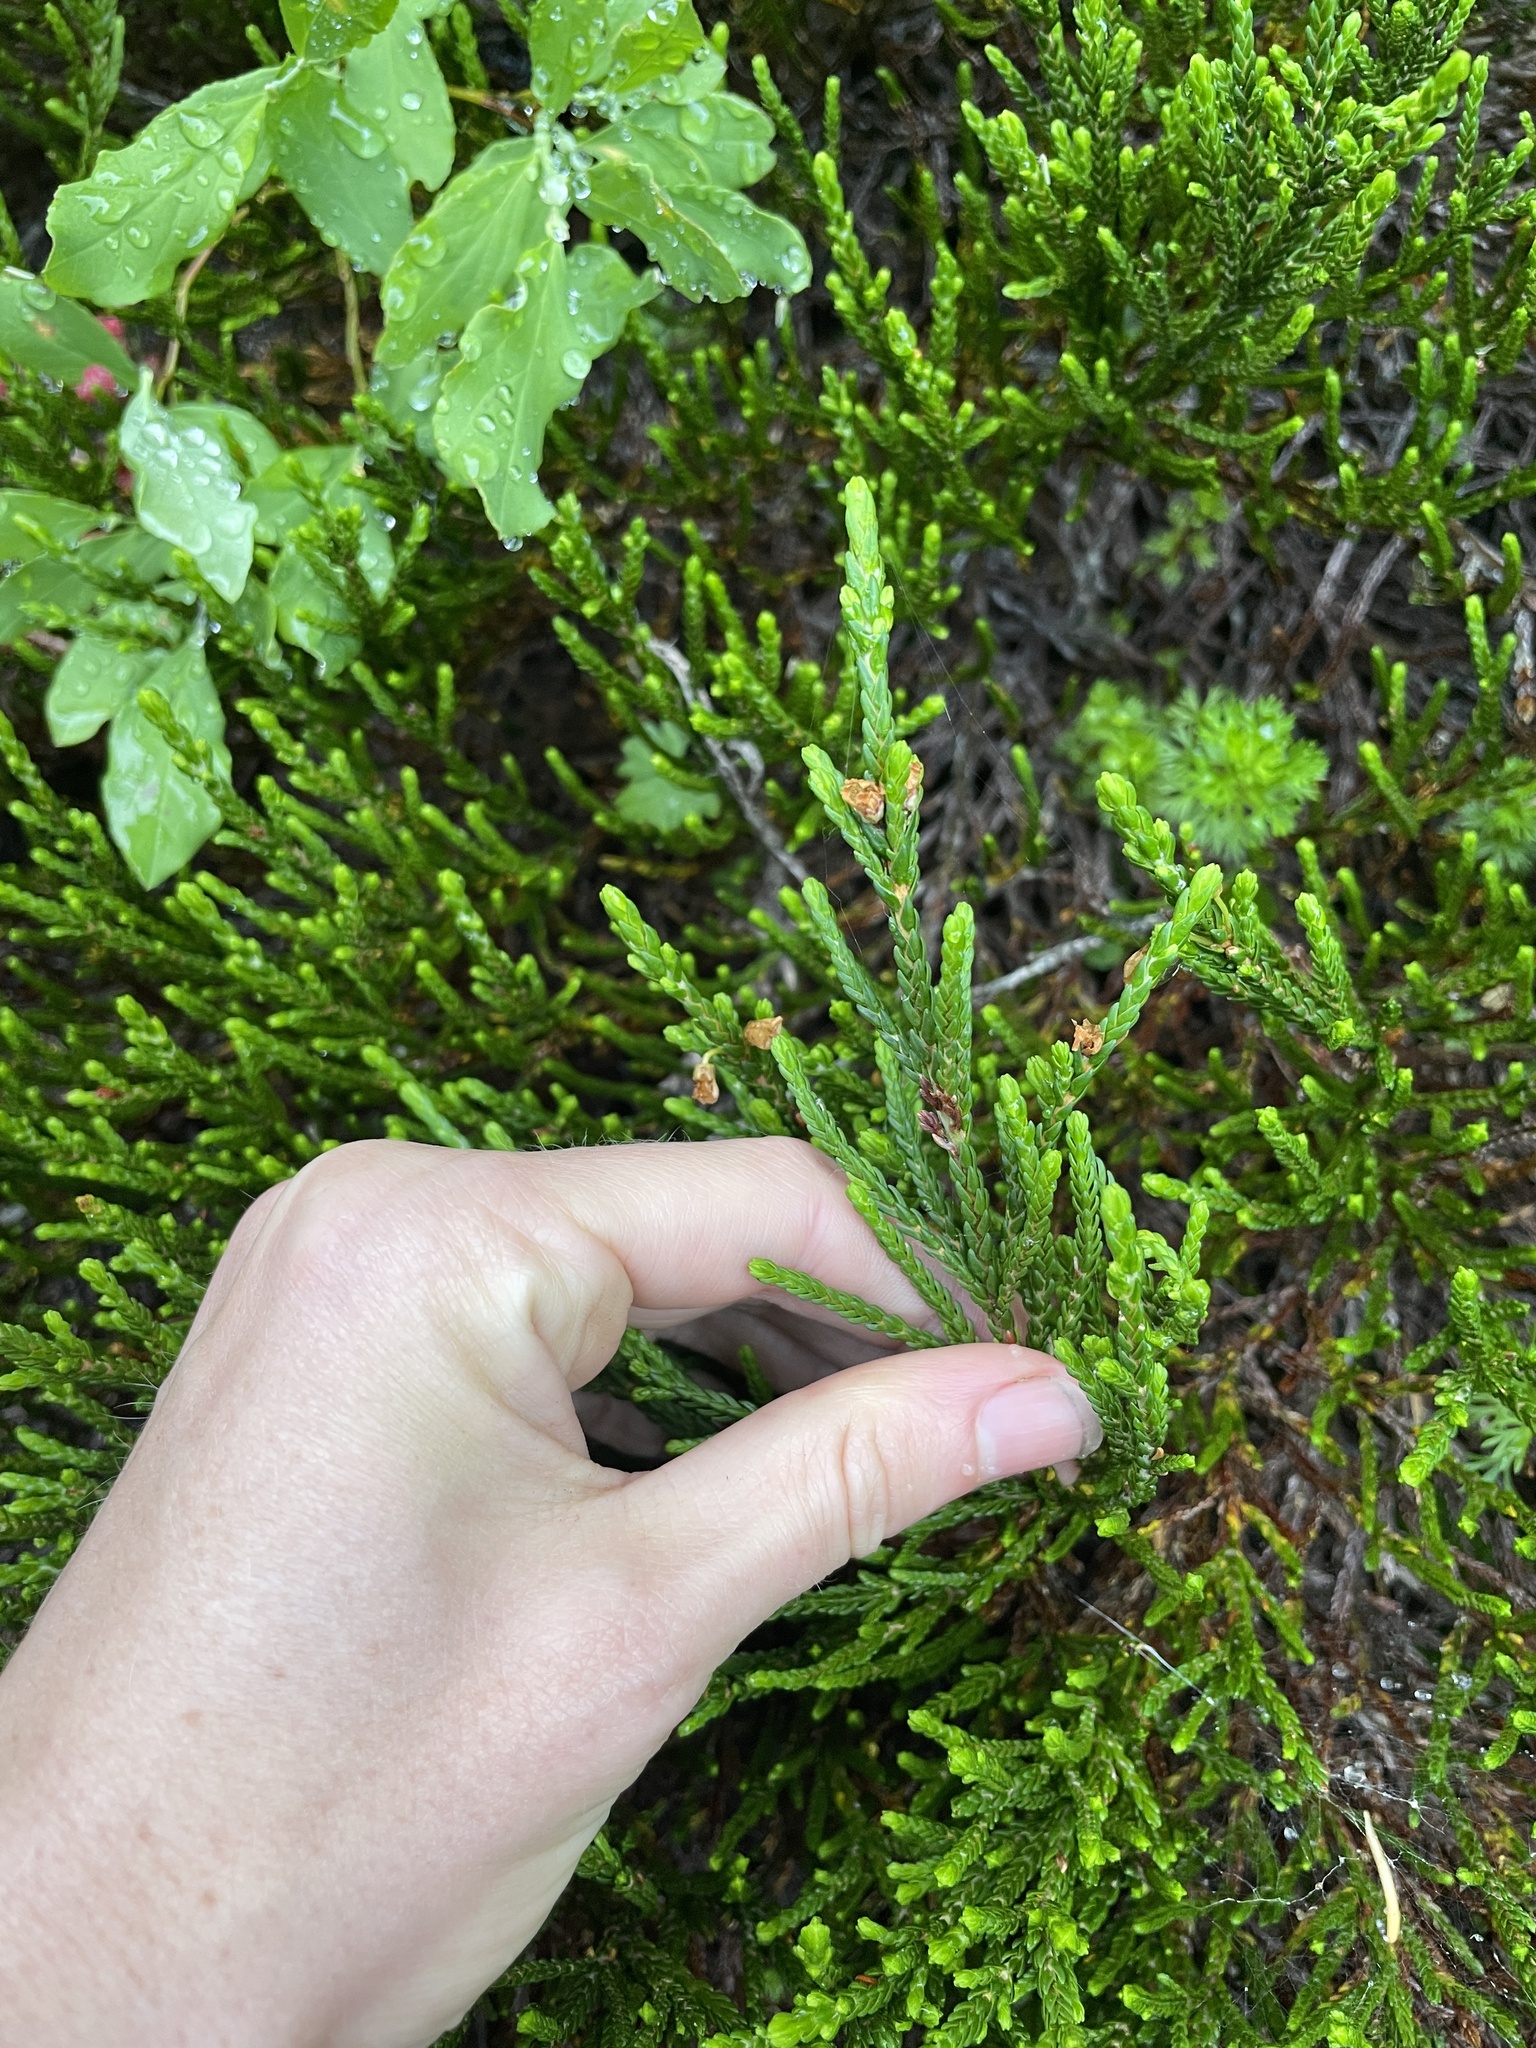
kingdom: Plantae
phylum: Tracheophyta
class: Magnoliopsida
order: Ericales
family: Ericaceae
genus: Cassiope
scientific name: Cassiope mertensiana
